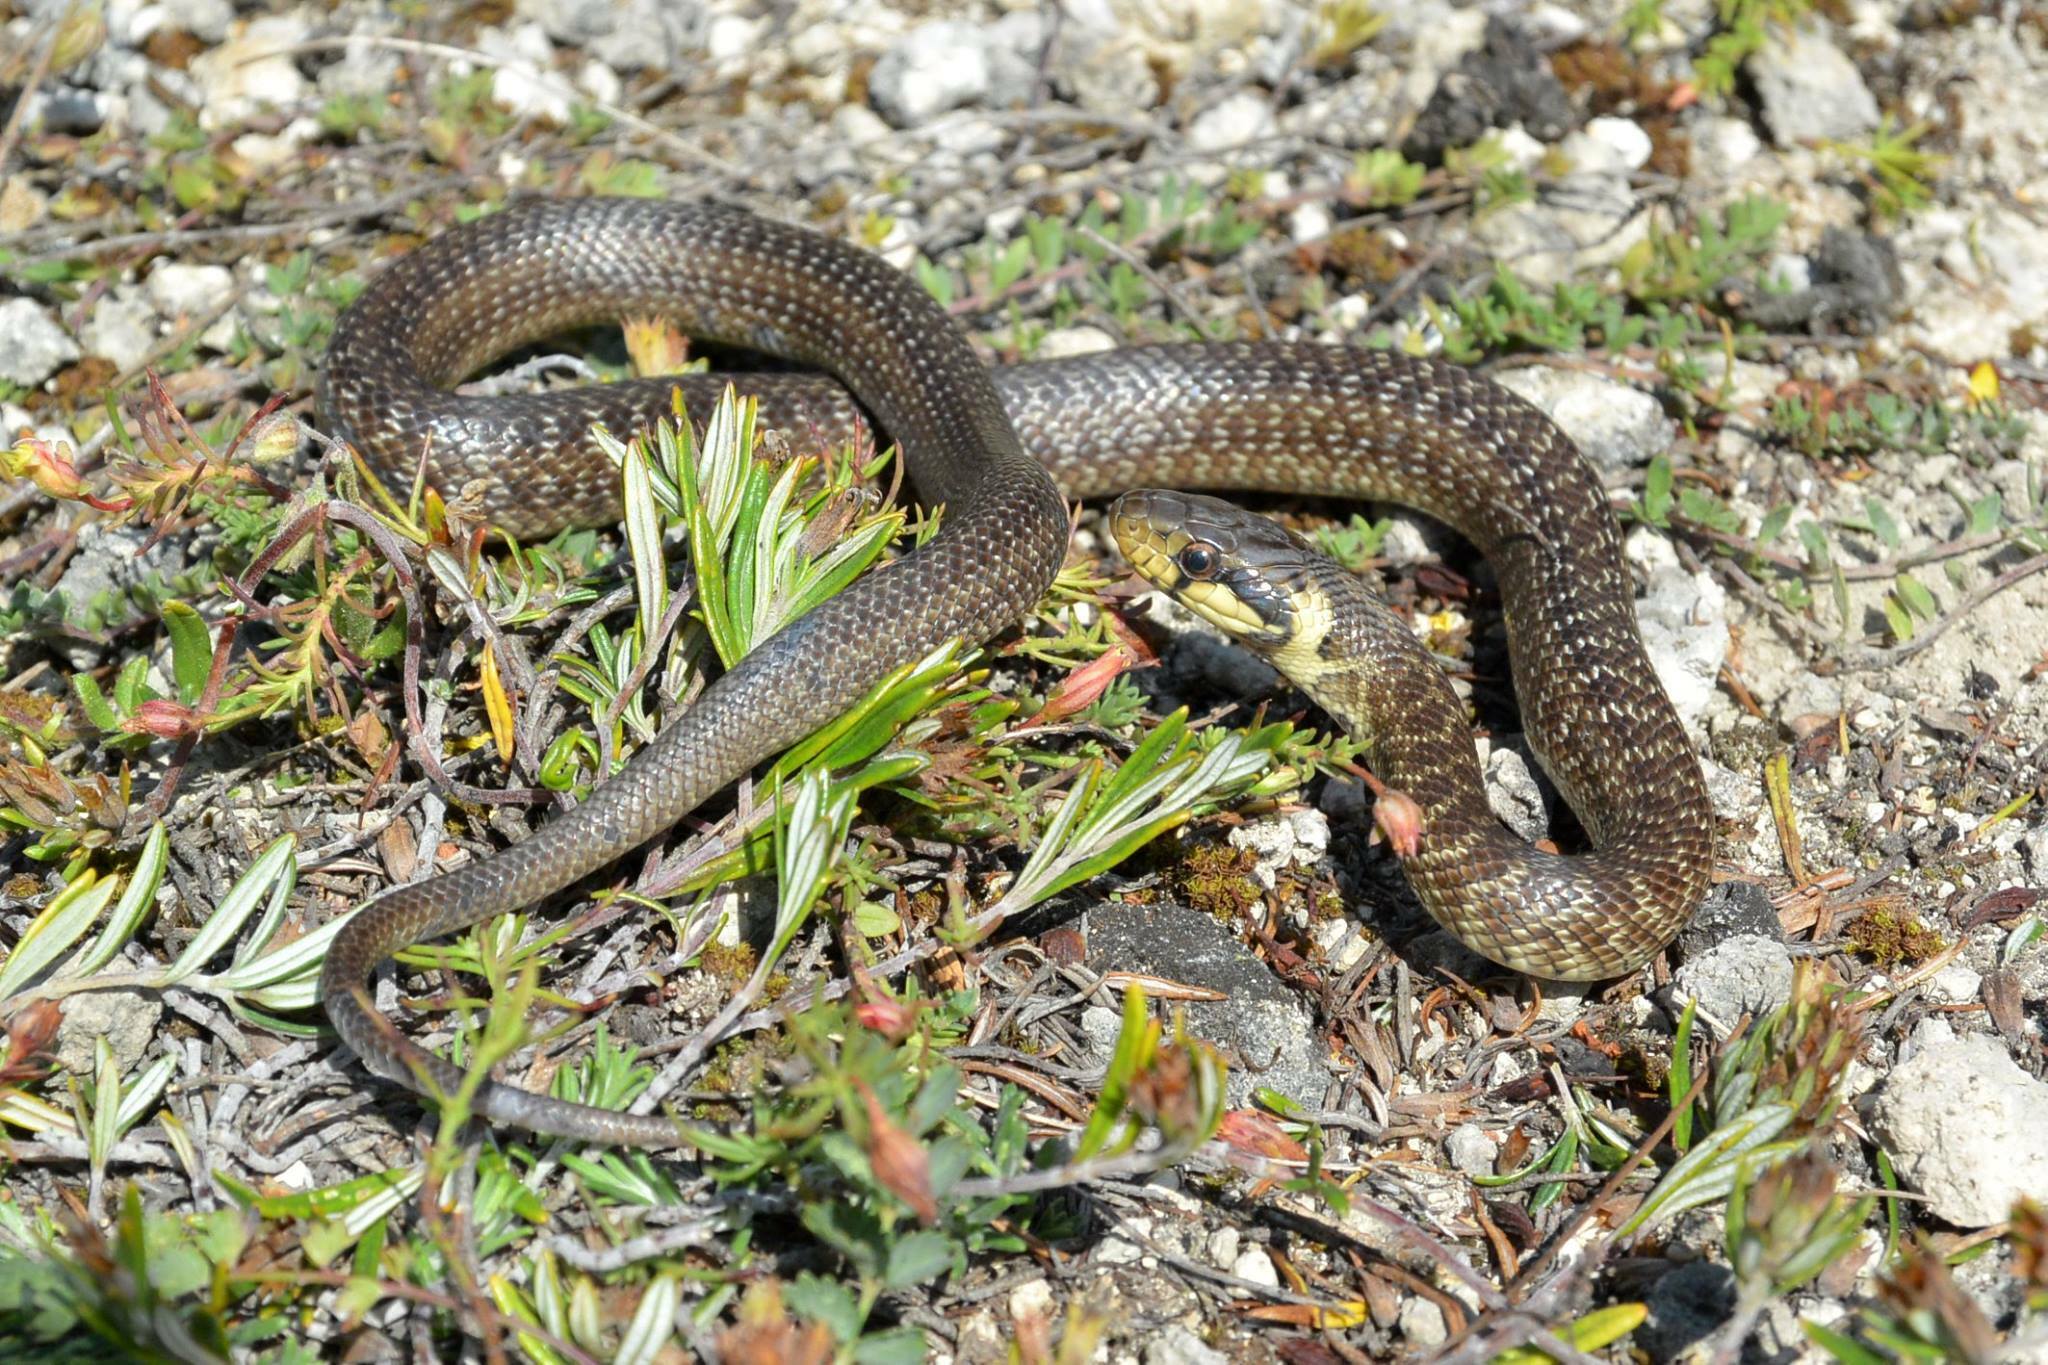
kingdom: Animalia
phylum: Chordata
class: Squamata
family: Colubridae
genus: Zamenis
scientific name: Zamenis longissimus
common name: Aesculapean snake
